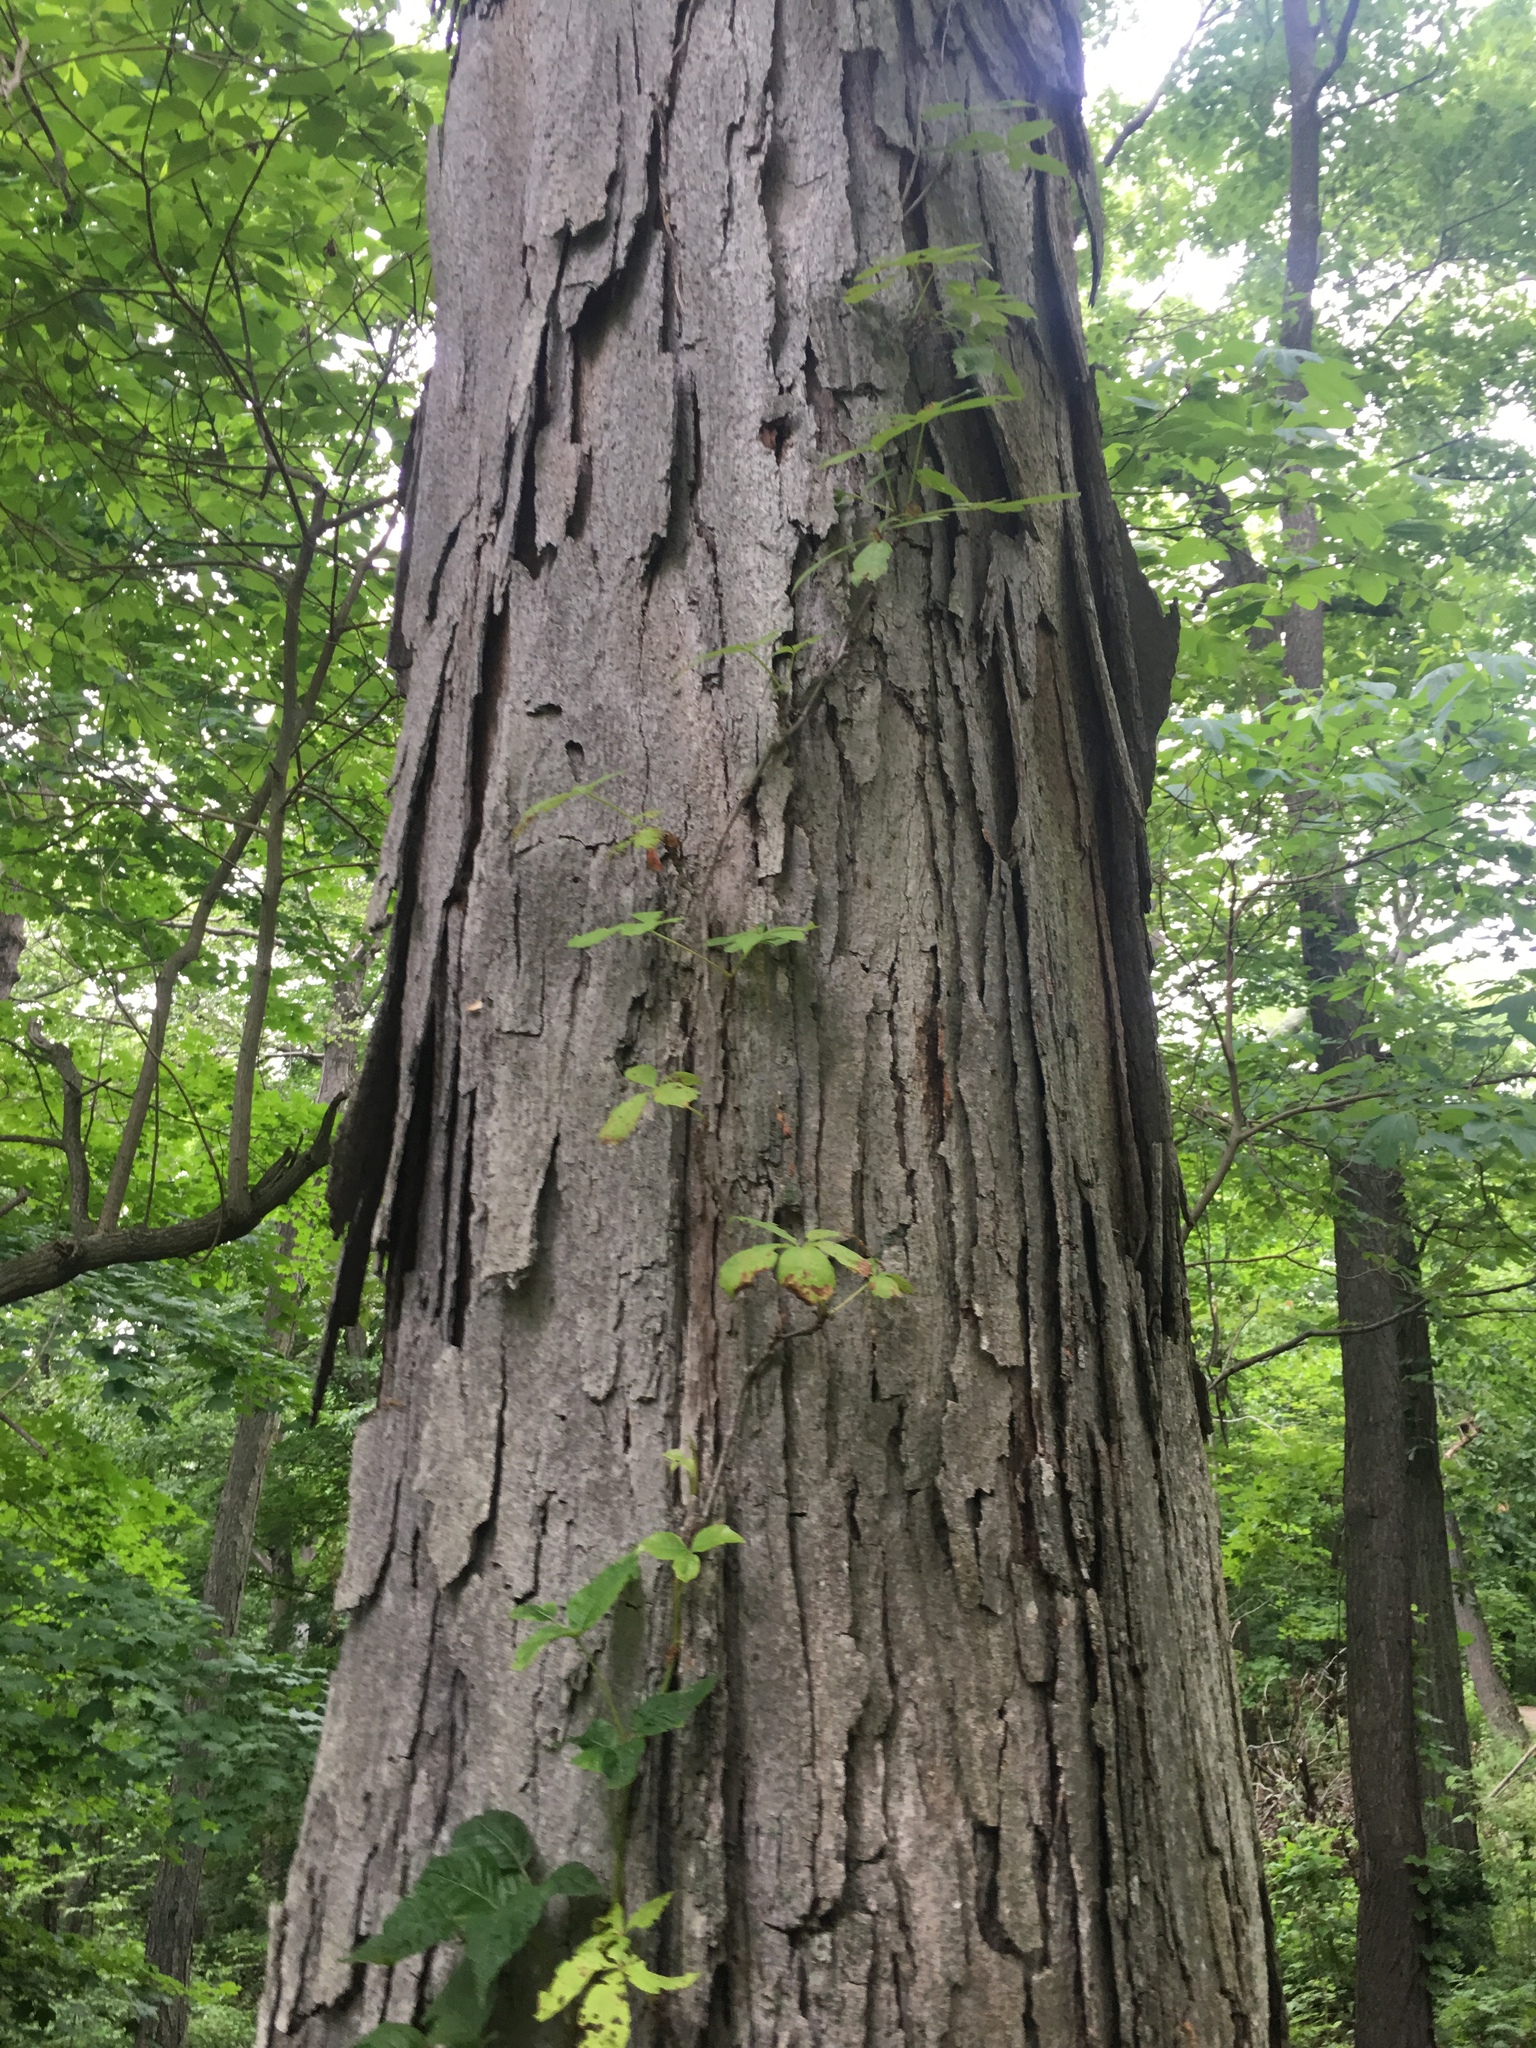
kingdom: Plantae
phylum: Tracheophyta
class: Magnoliopsida
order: Fagales
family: Juglandaceae
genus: Carya
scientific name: Carya ovata
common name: Shagbark hickory
